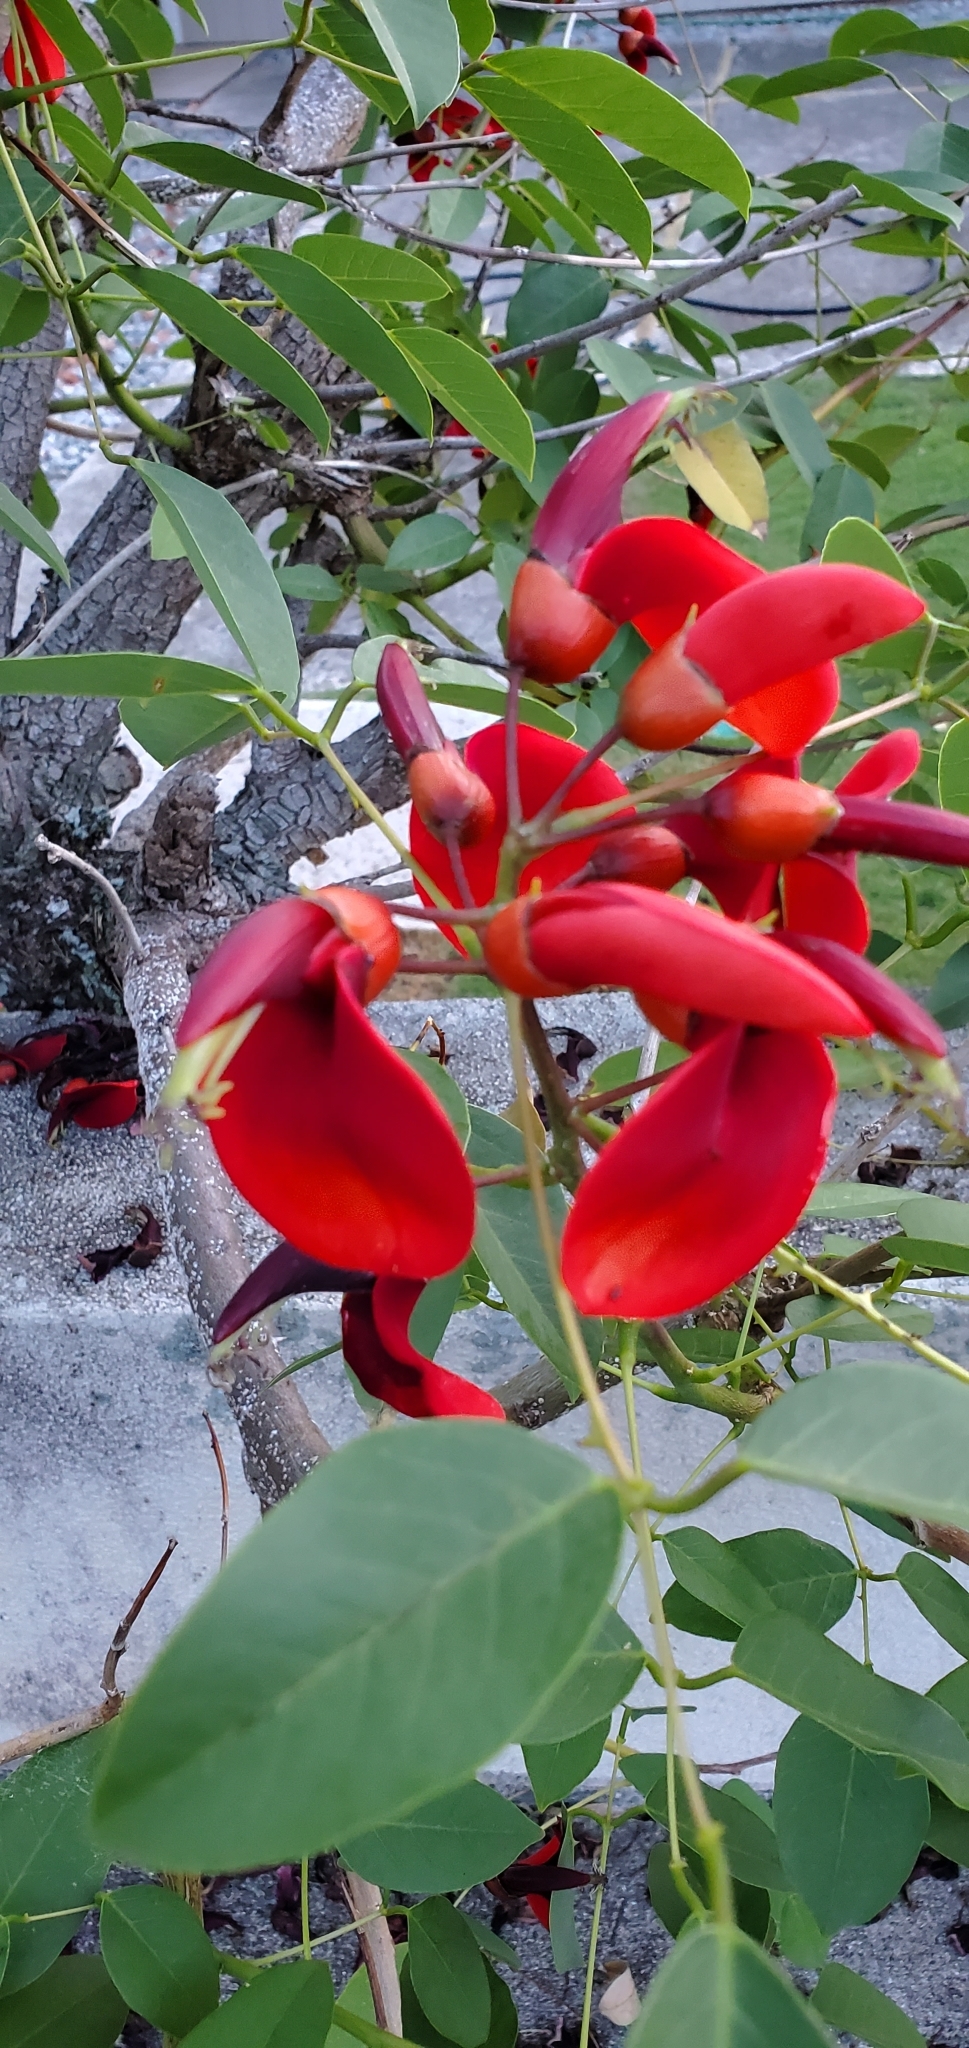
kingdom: Plantae
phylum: Tracheophyta
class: Magnoliopsida
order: Fabales
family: Fabaceae
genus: Erythrina
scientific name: Erythrina crista-galli
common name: Cockspur coral tree
